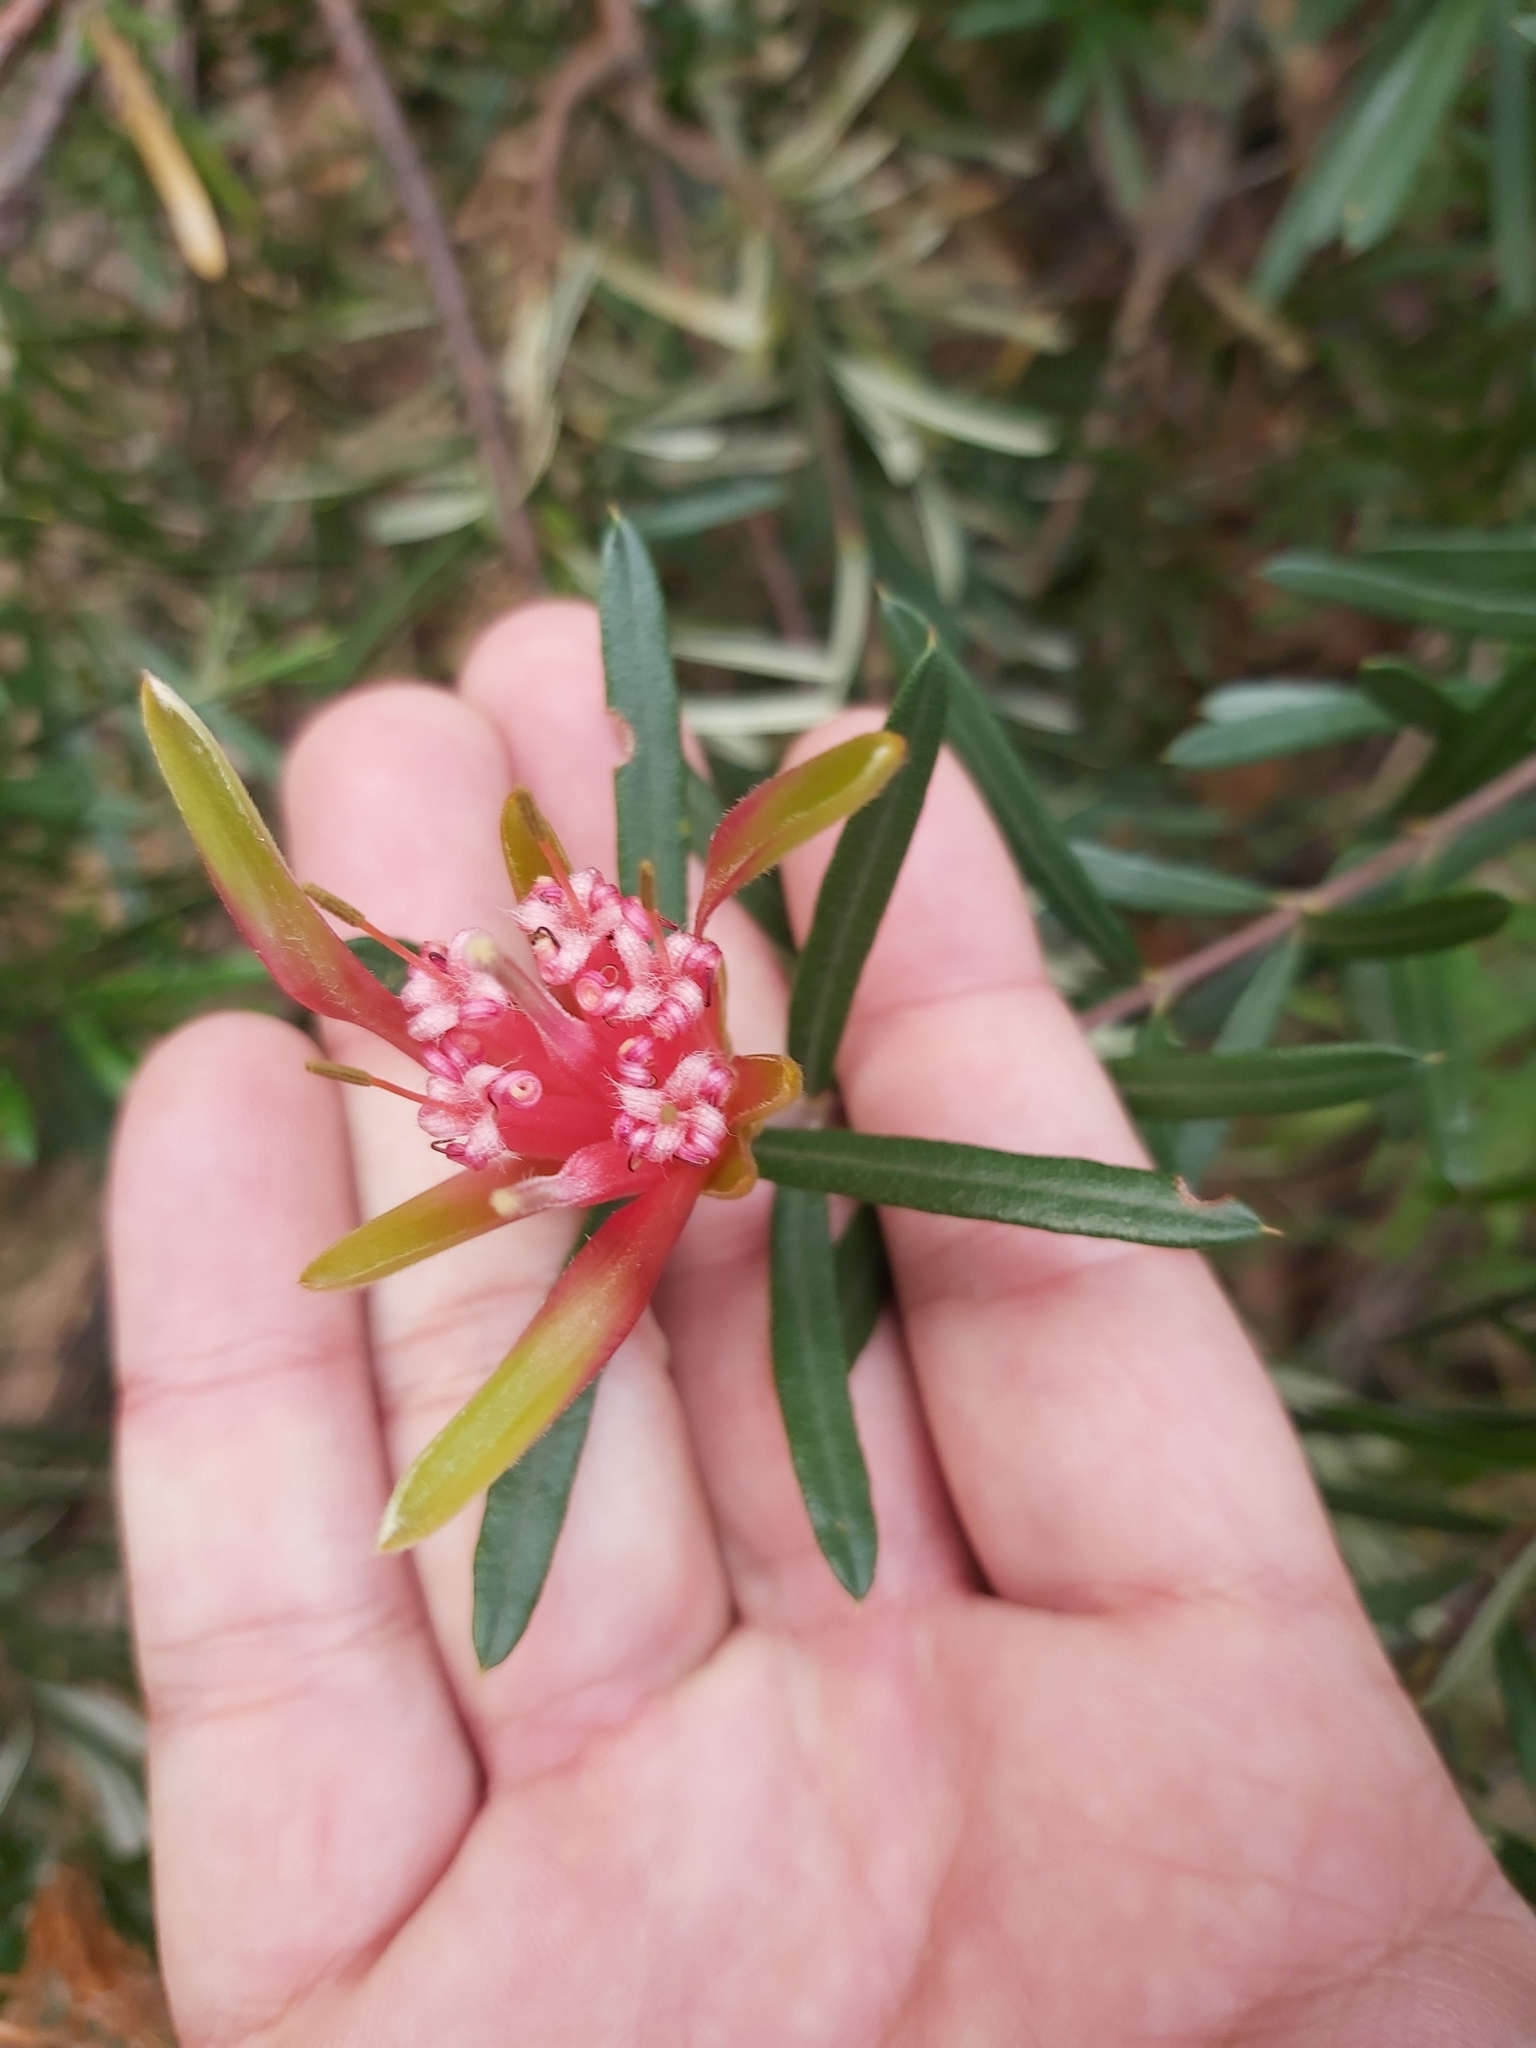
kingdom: Plantae
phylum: Tracheophyta
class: Magnoliopsida
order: Proteales
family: Proteaceae
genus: Lambertia
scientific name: Lambertia formosa
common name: Mountain-devil
